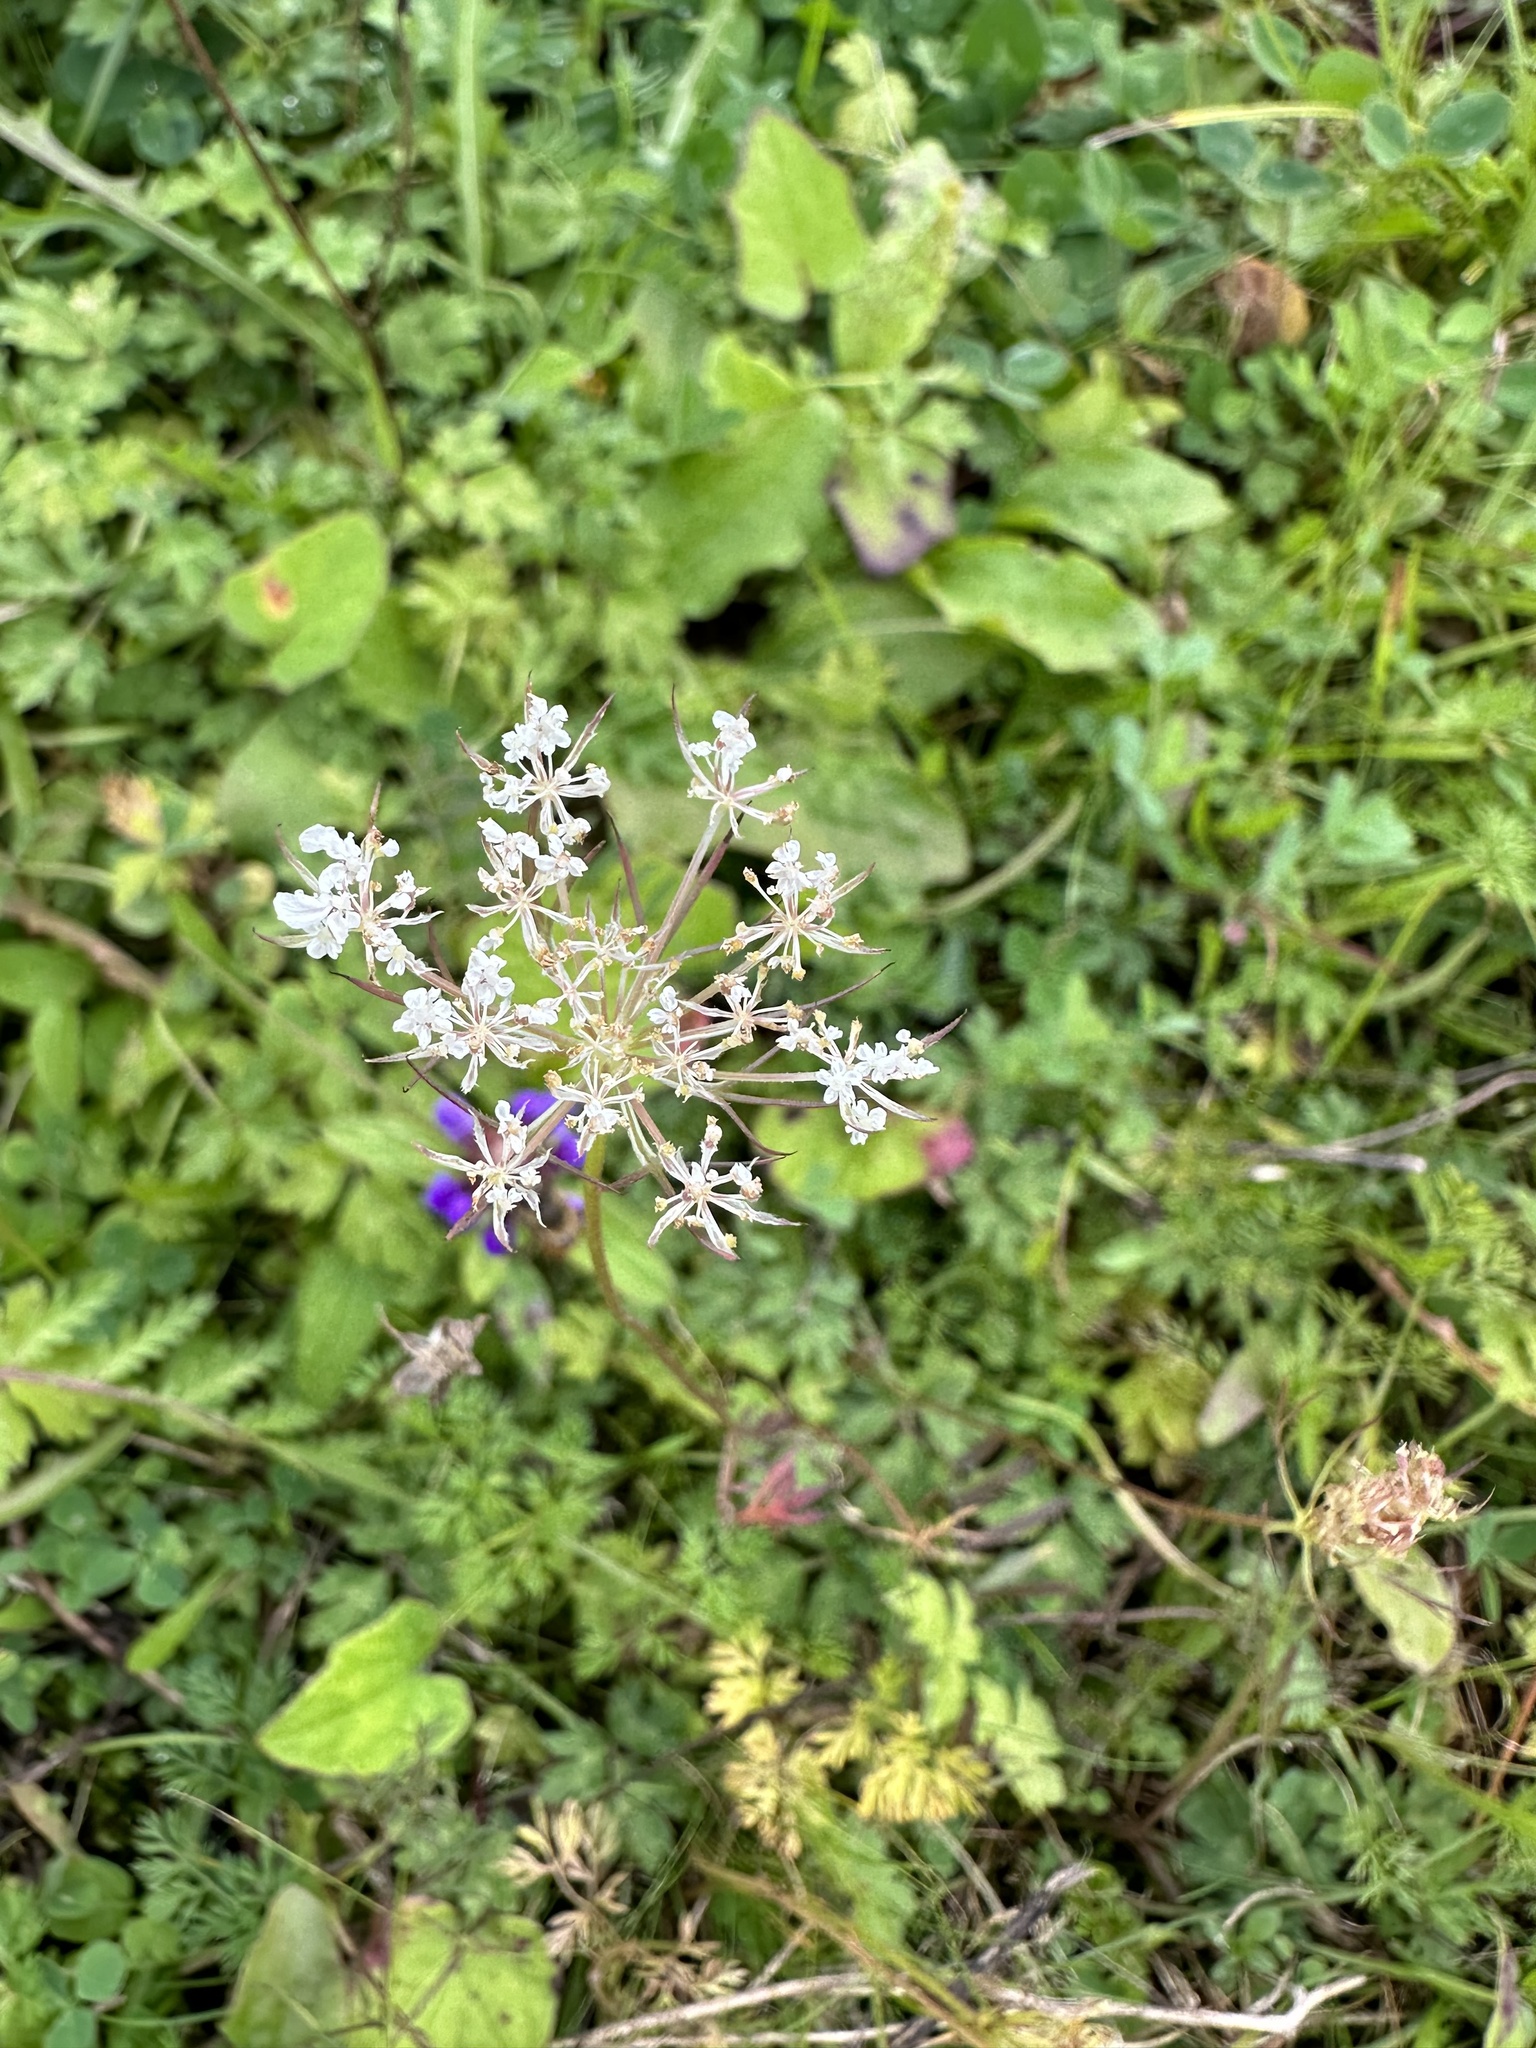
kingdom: Plantae
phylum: Tracheophyta
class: Magnoliopsida
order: Apiales
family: Apiaceae
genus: Daucus
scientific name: Daucus carota
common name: Wild carrot
